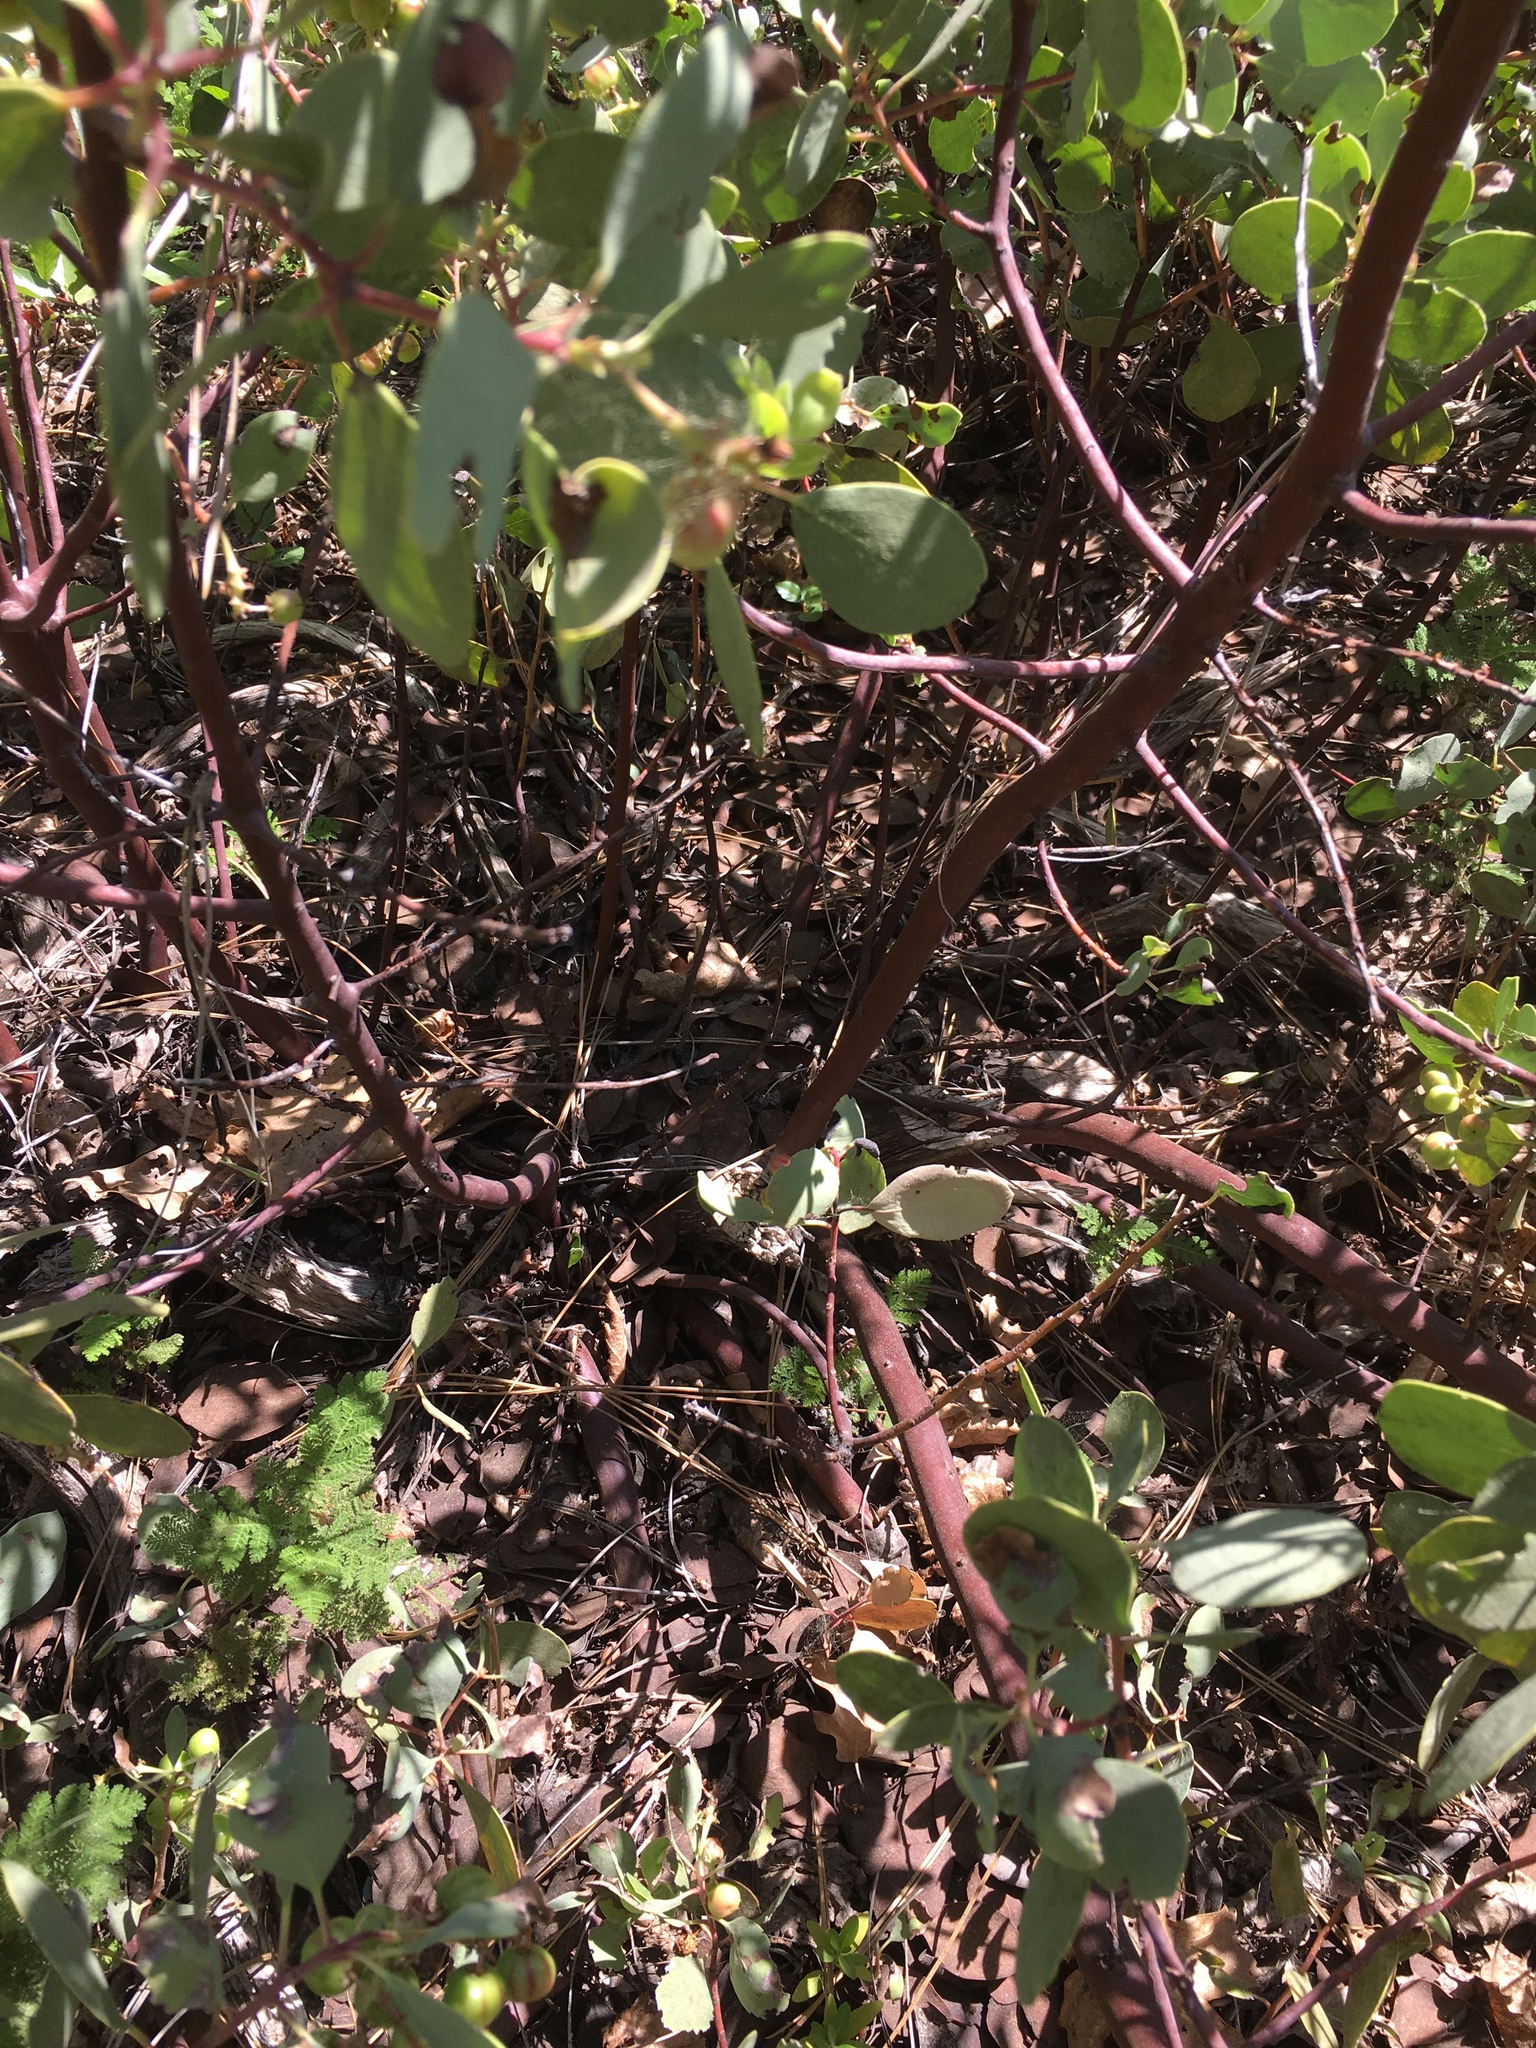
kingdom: Plantae
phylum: Tracheophyta
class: Magnoliopsida
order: Ericales
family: Ericaceae
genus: Arctostaphylos
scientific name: Arctostaphylos mewukka
